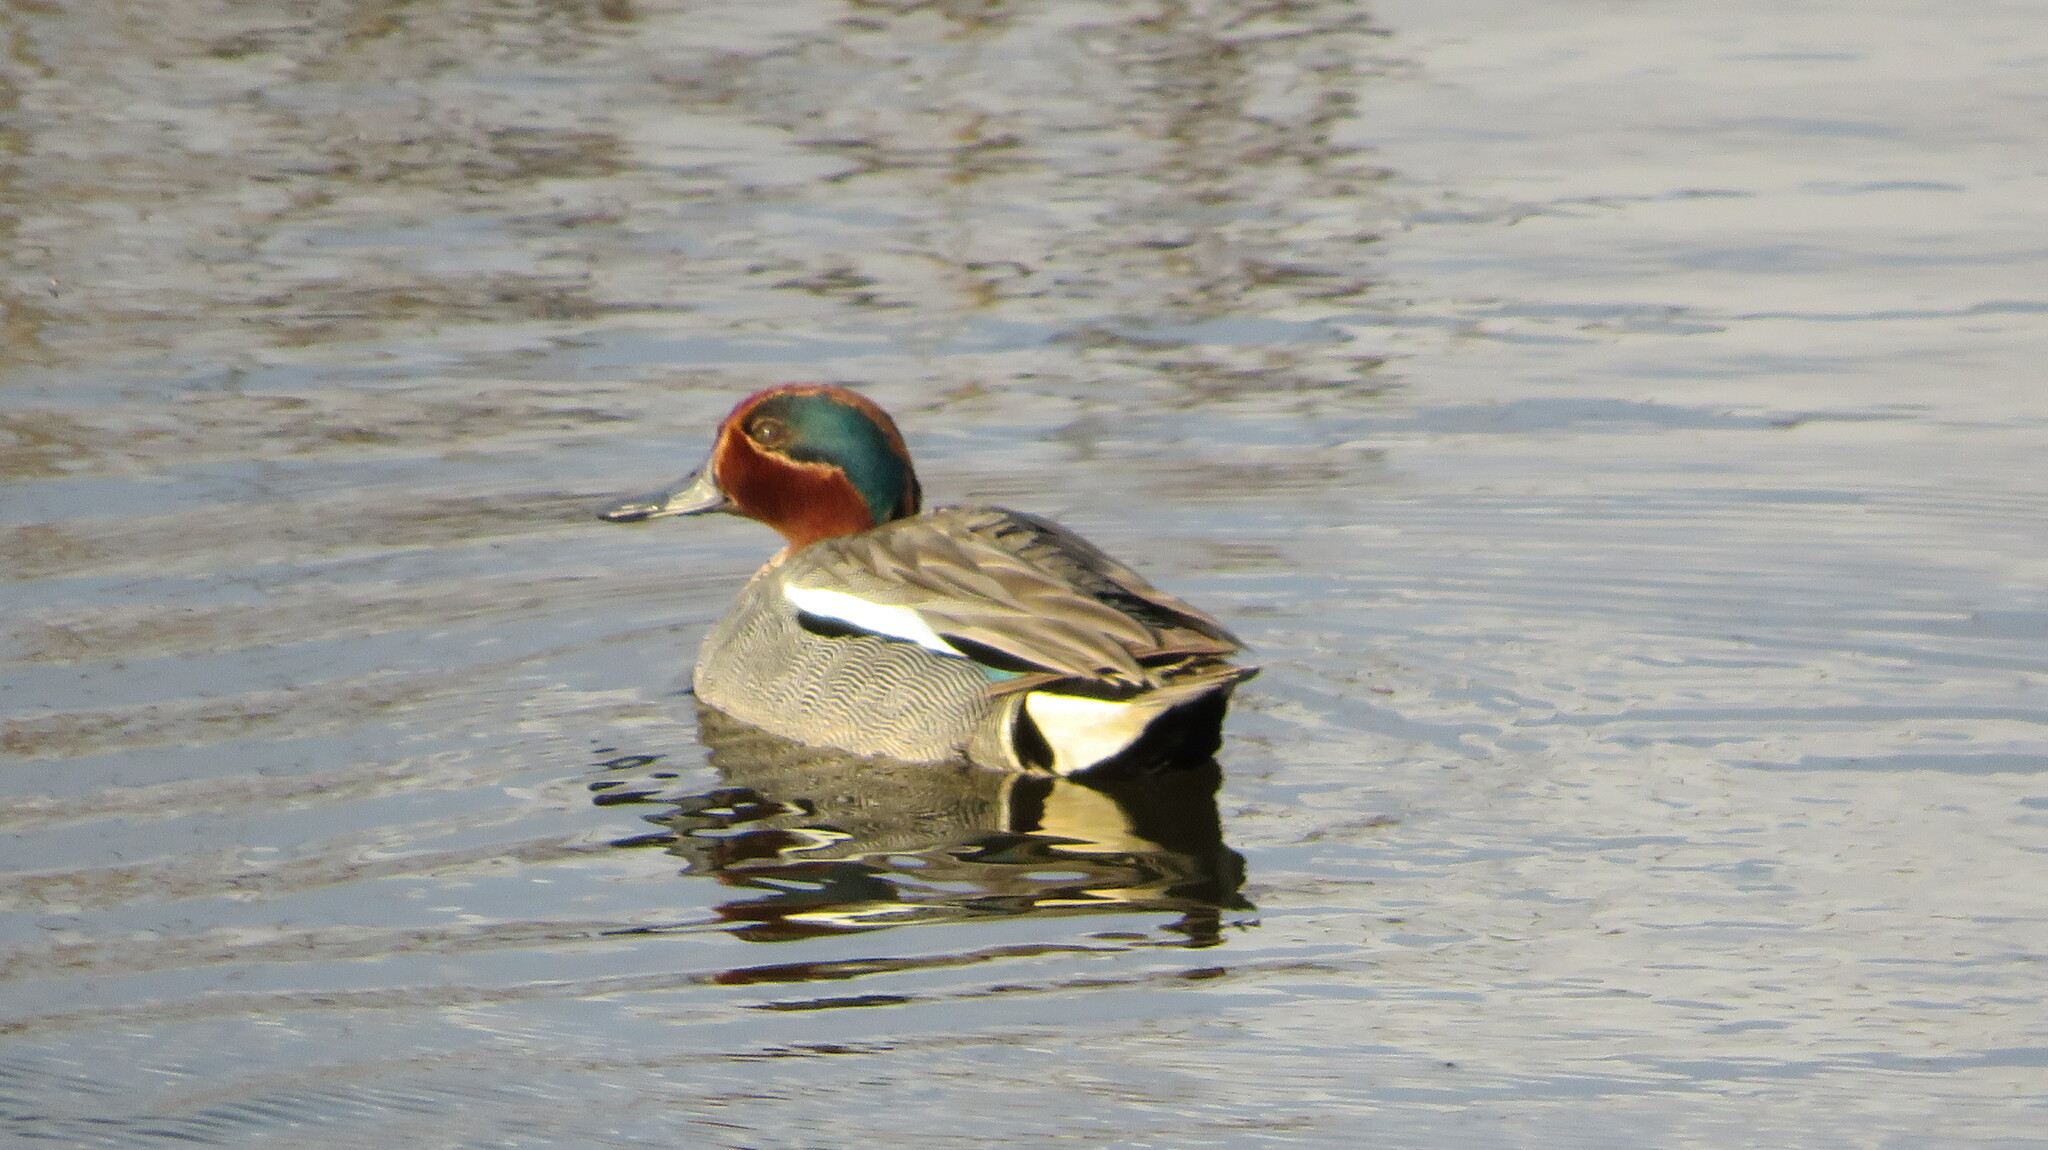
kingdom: Animalia
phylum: Chordata
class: Aves
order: Anseriformes
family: Anatidae
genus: Anas
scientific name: Anas crecca
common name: Eurasian teal
